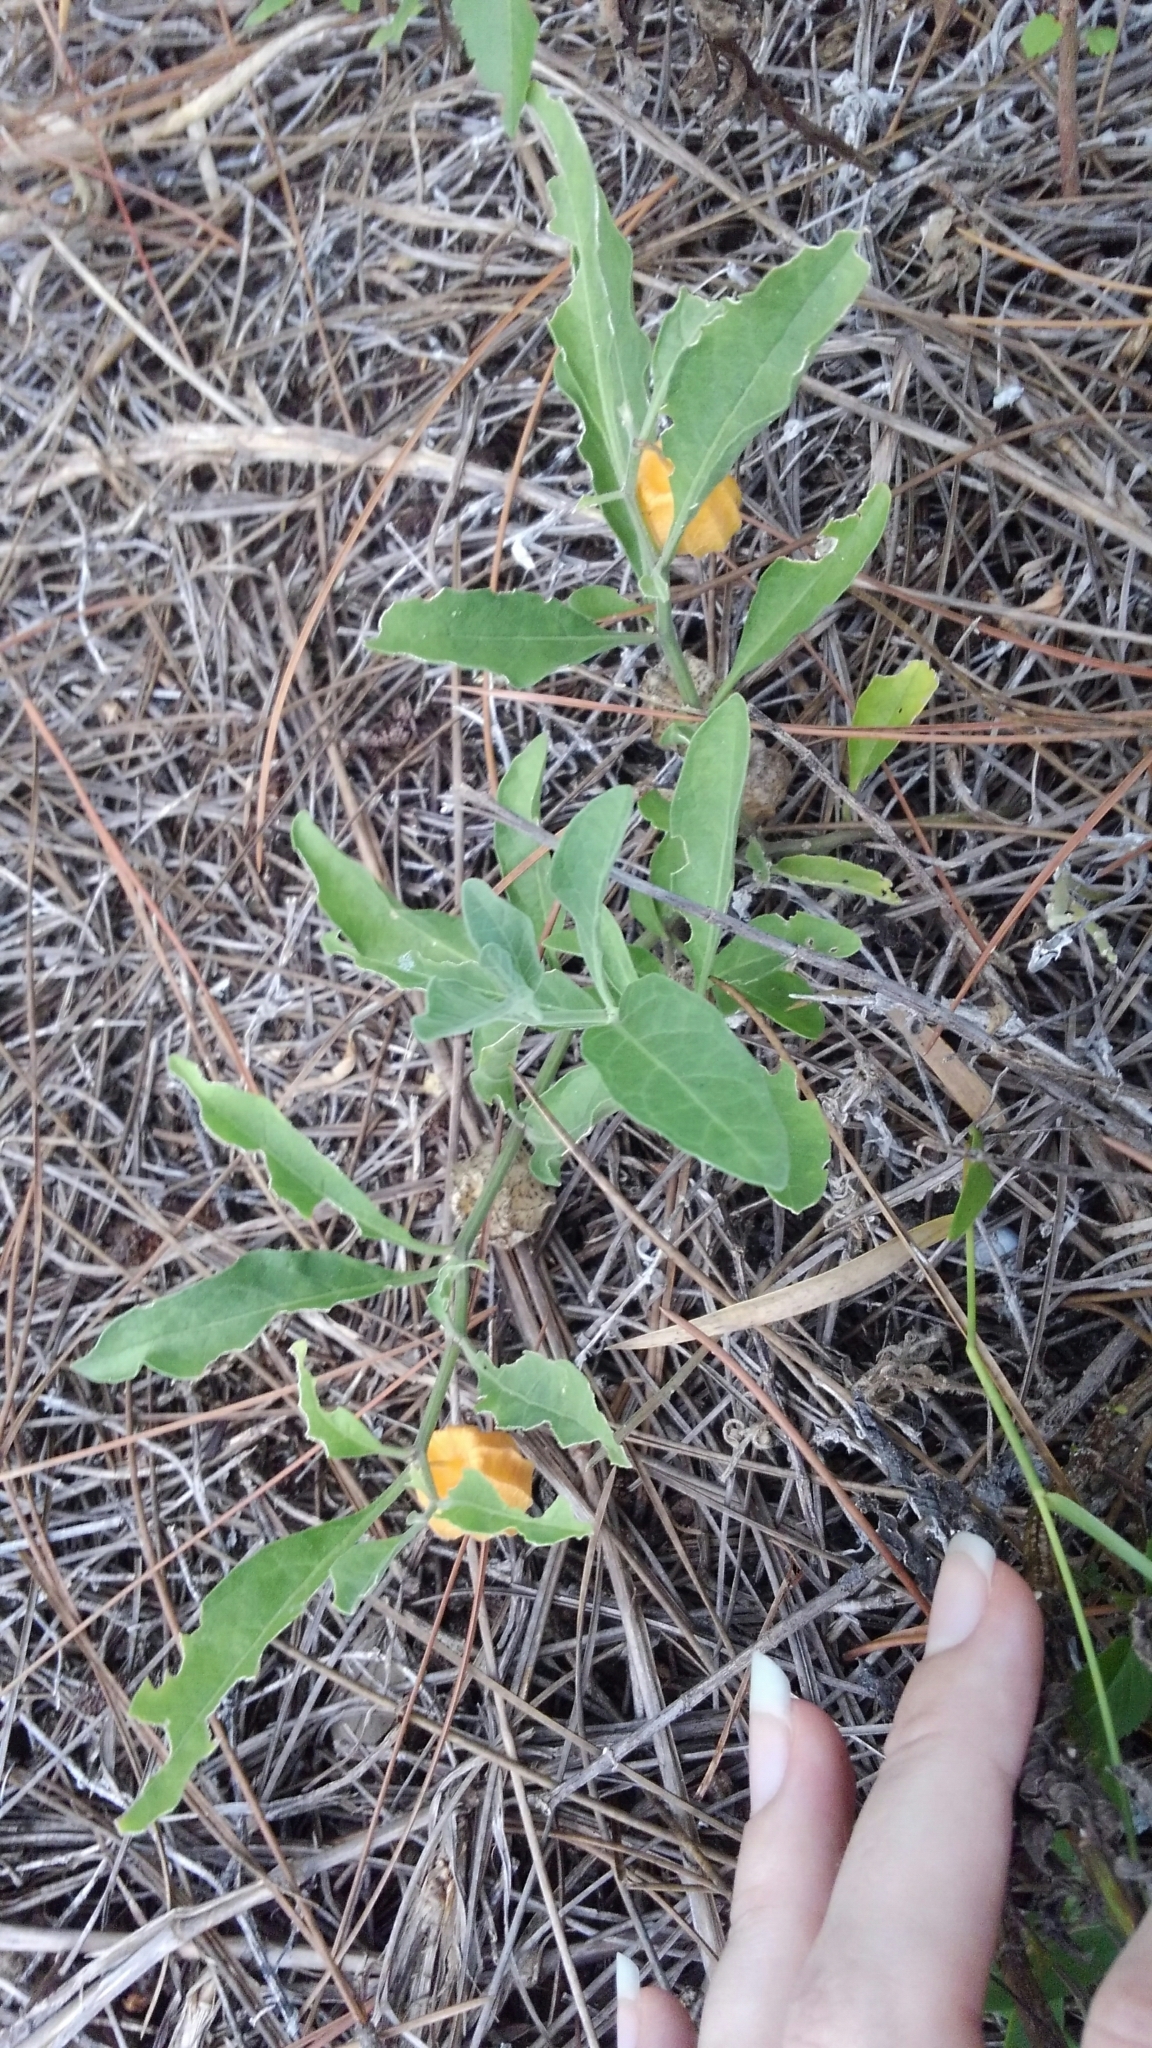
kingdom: Plantae
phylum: Tracheophyta
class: Magnoliopsida
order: Solanales
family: Solanaceae
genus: Physalis
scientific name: Physalis walteri
